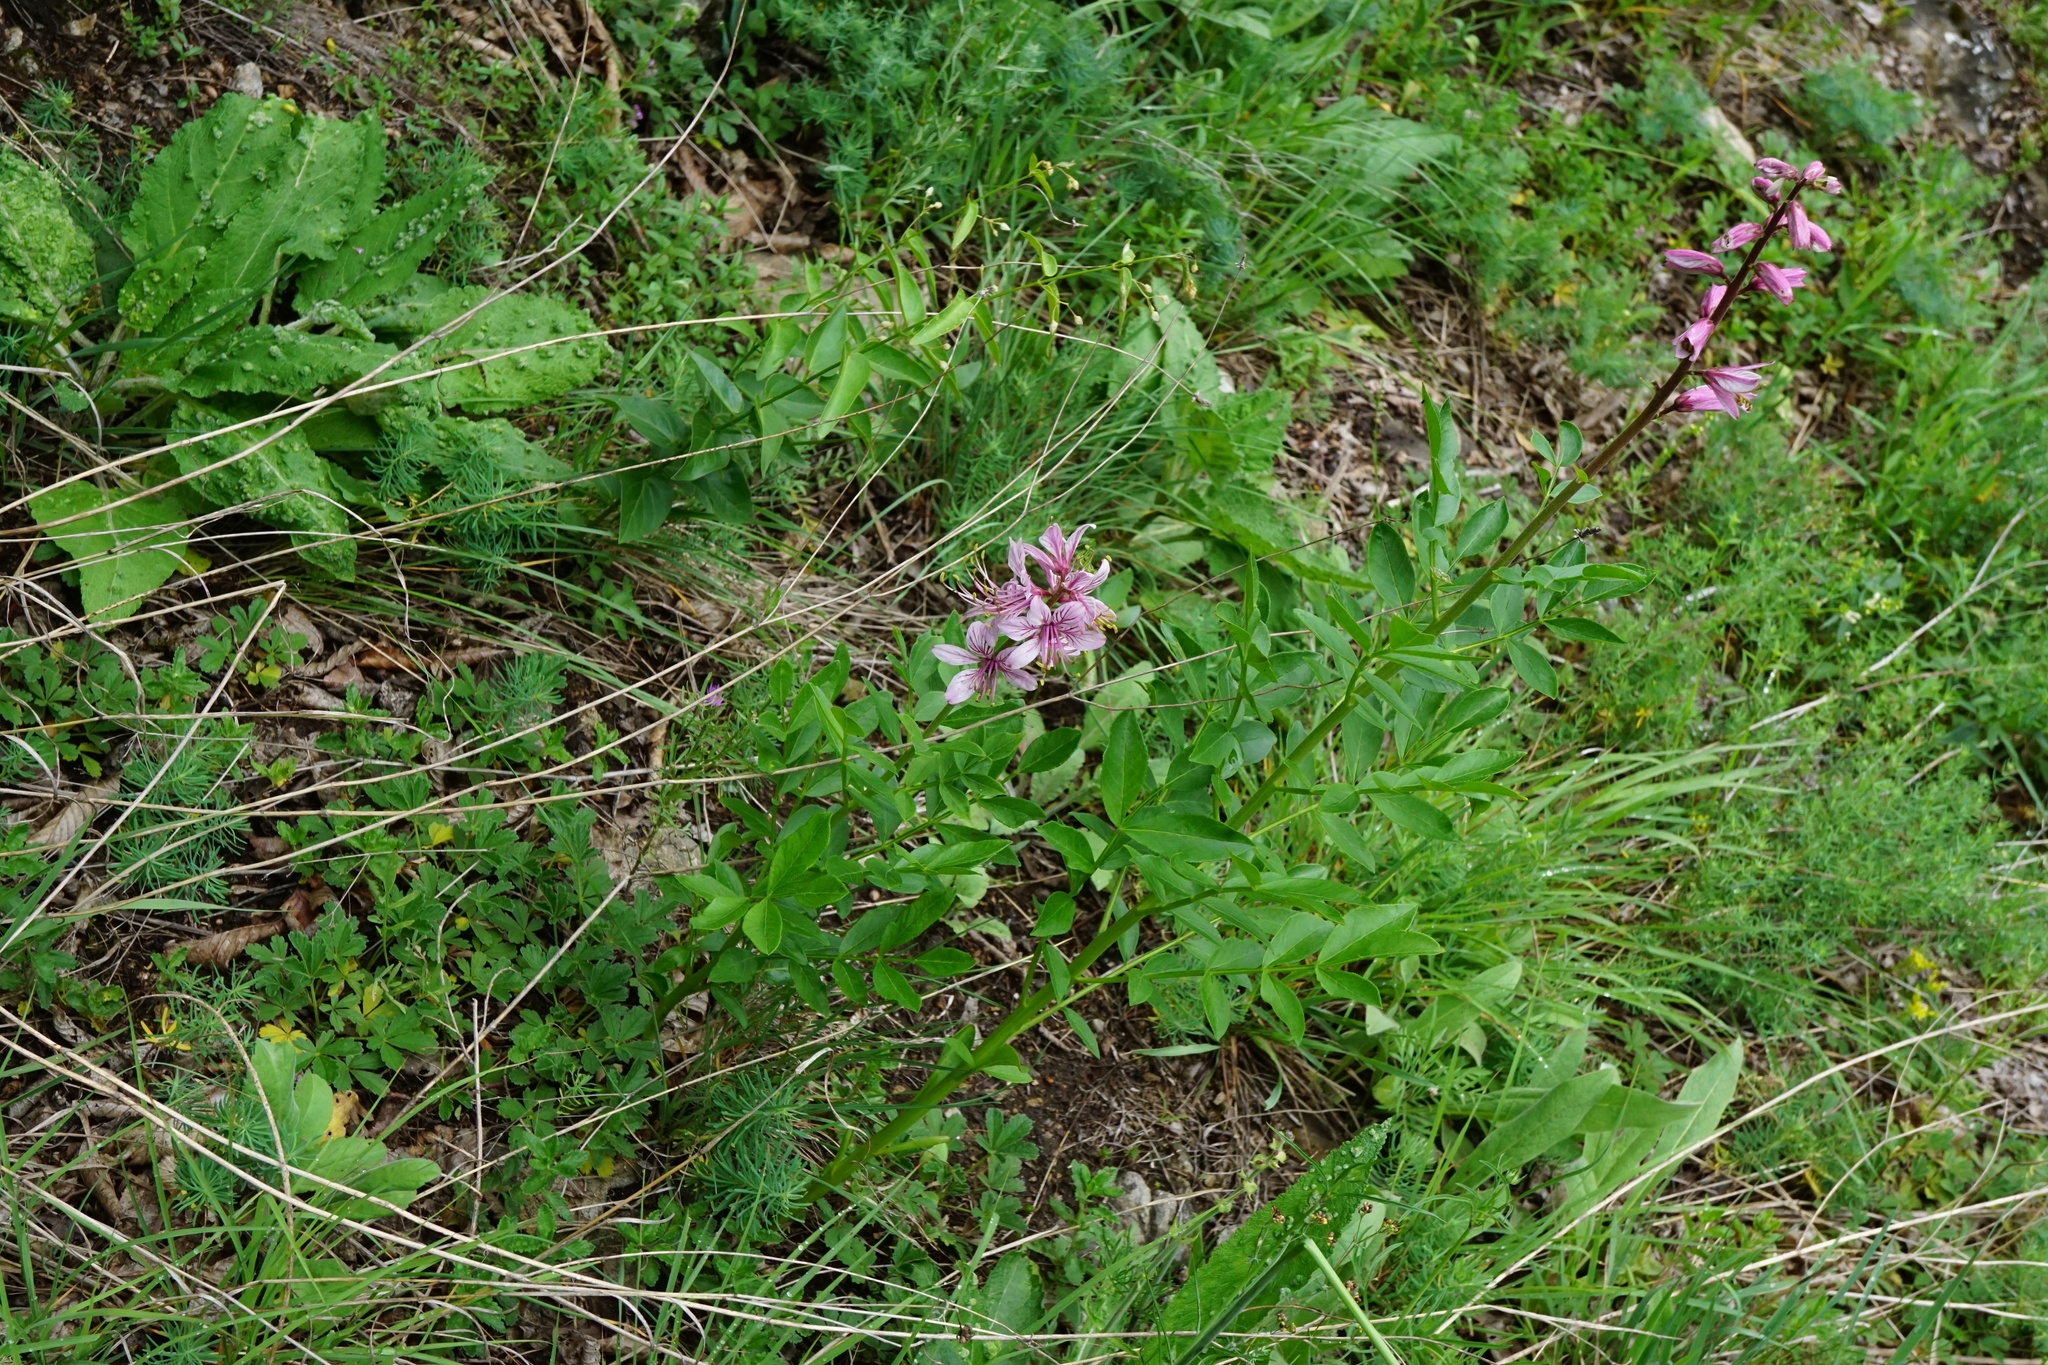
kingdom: Plantae
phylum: Tracheophyta
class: Magnoliopsida
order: Sapindales
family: Rutaceae
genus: Dictamnus
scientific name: Dictamnus albus
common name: Gasplant
